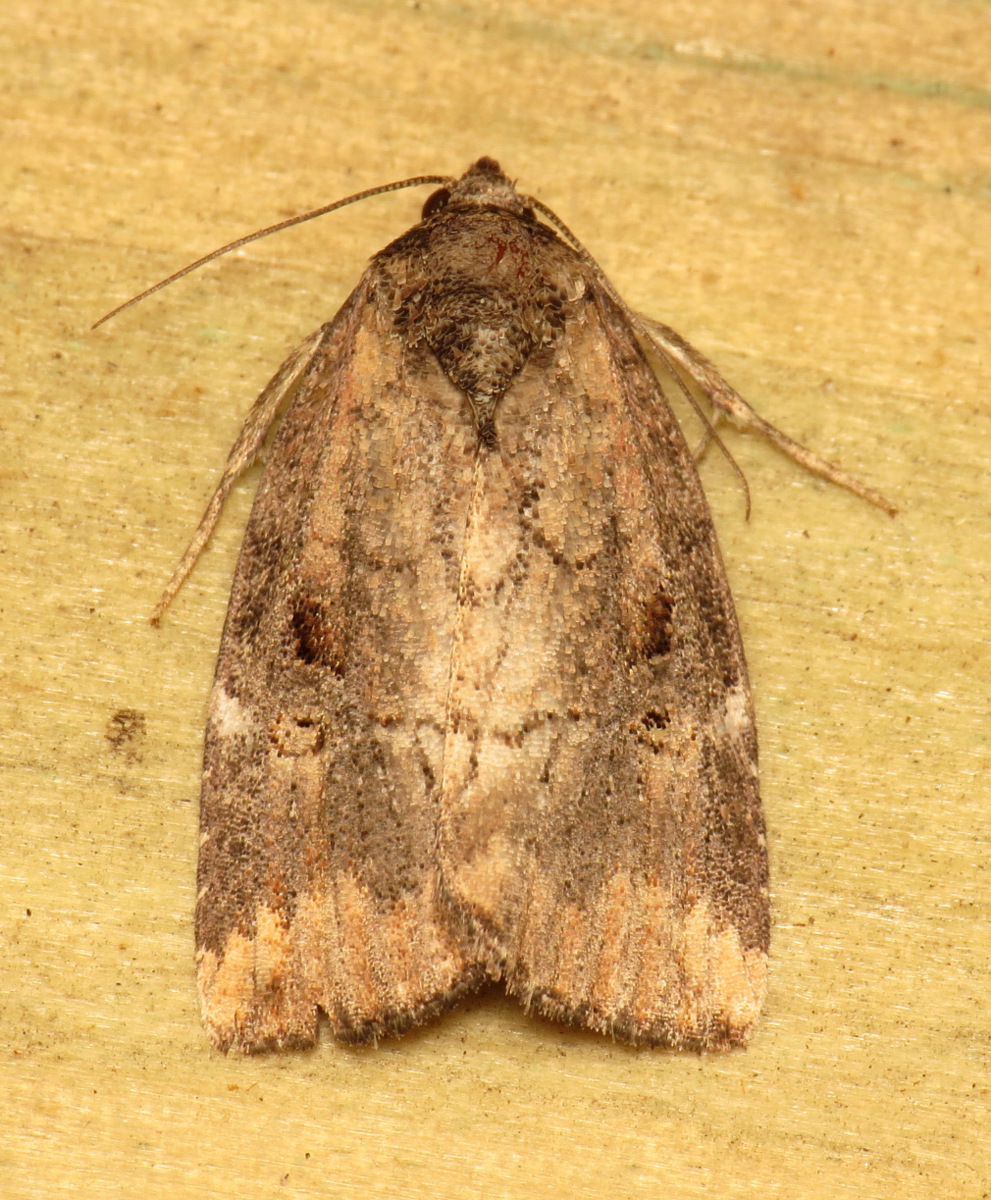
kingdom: Animalia
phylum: Arthropoda
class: Insecta
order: Lepidoptera
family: Noctuidae
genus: Elaphria
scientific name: Elaphria versicolor
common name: Fir harlequin
